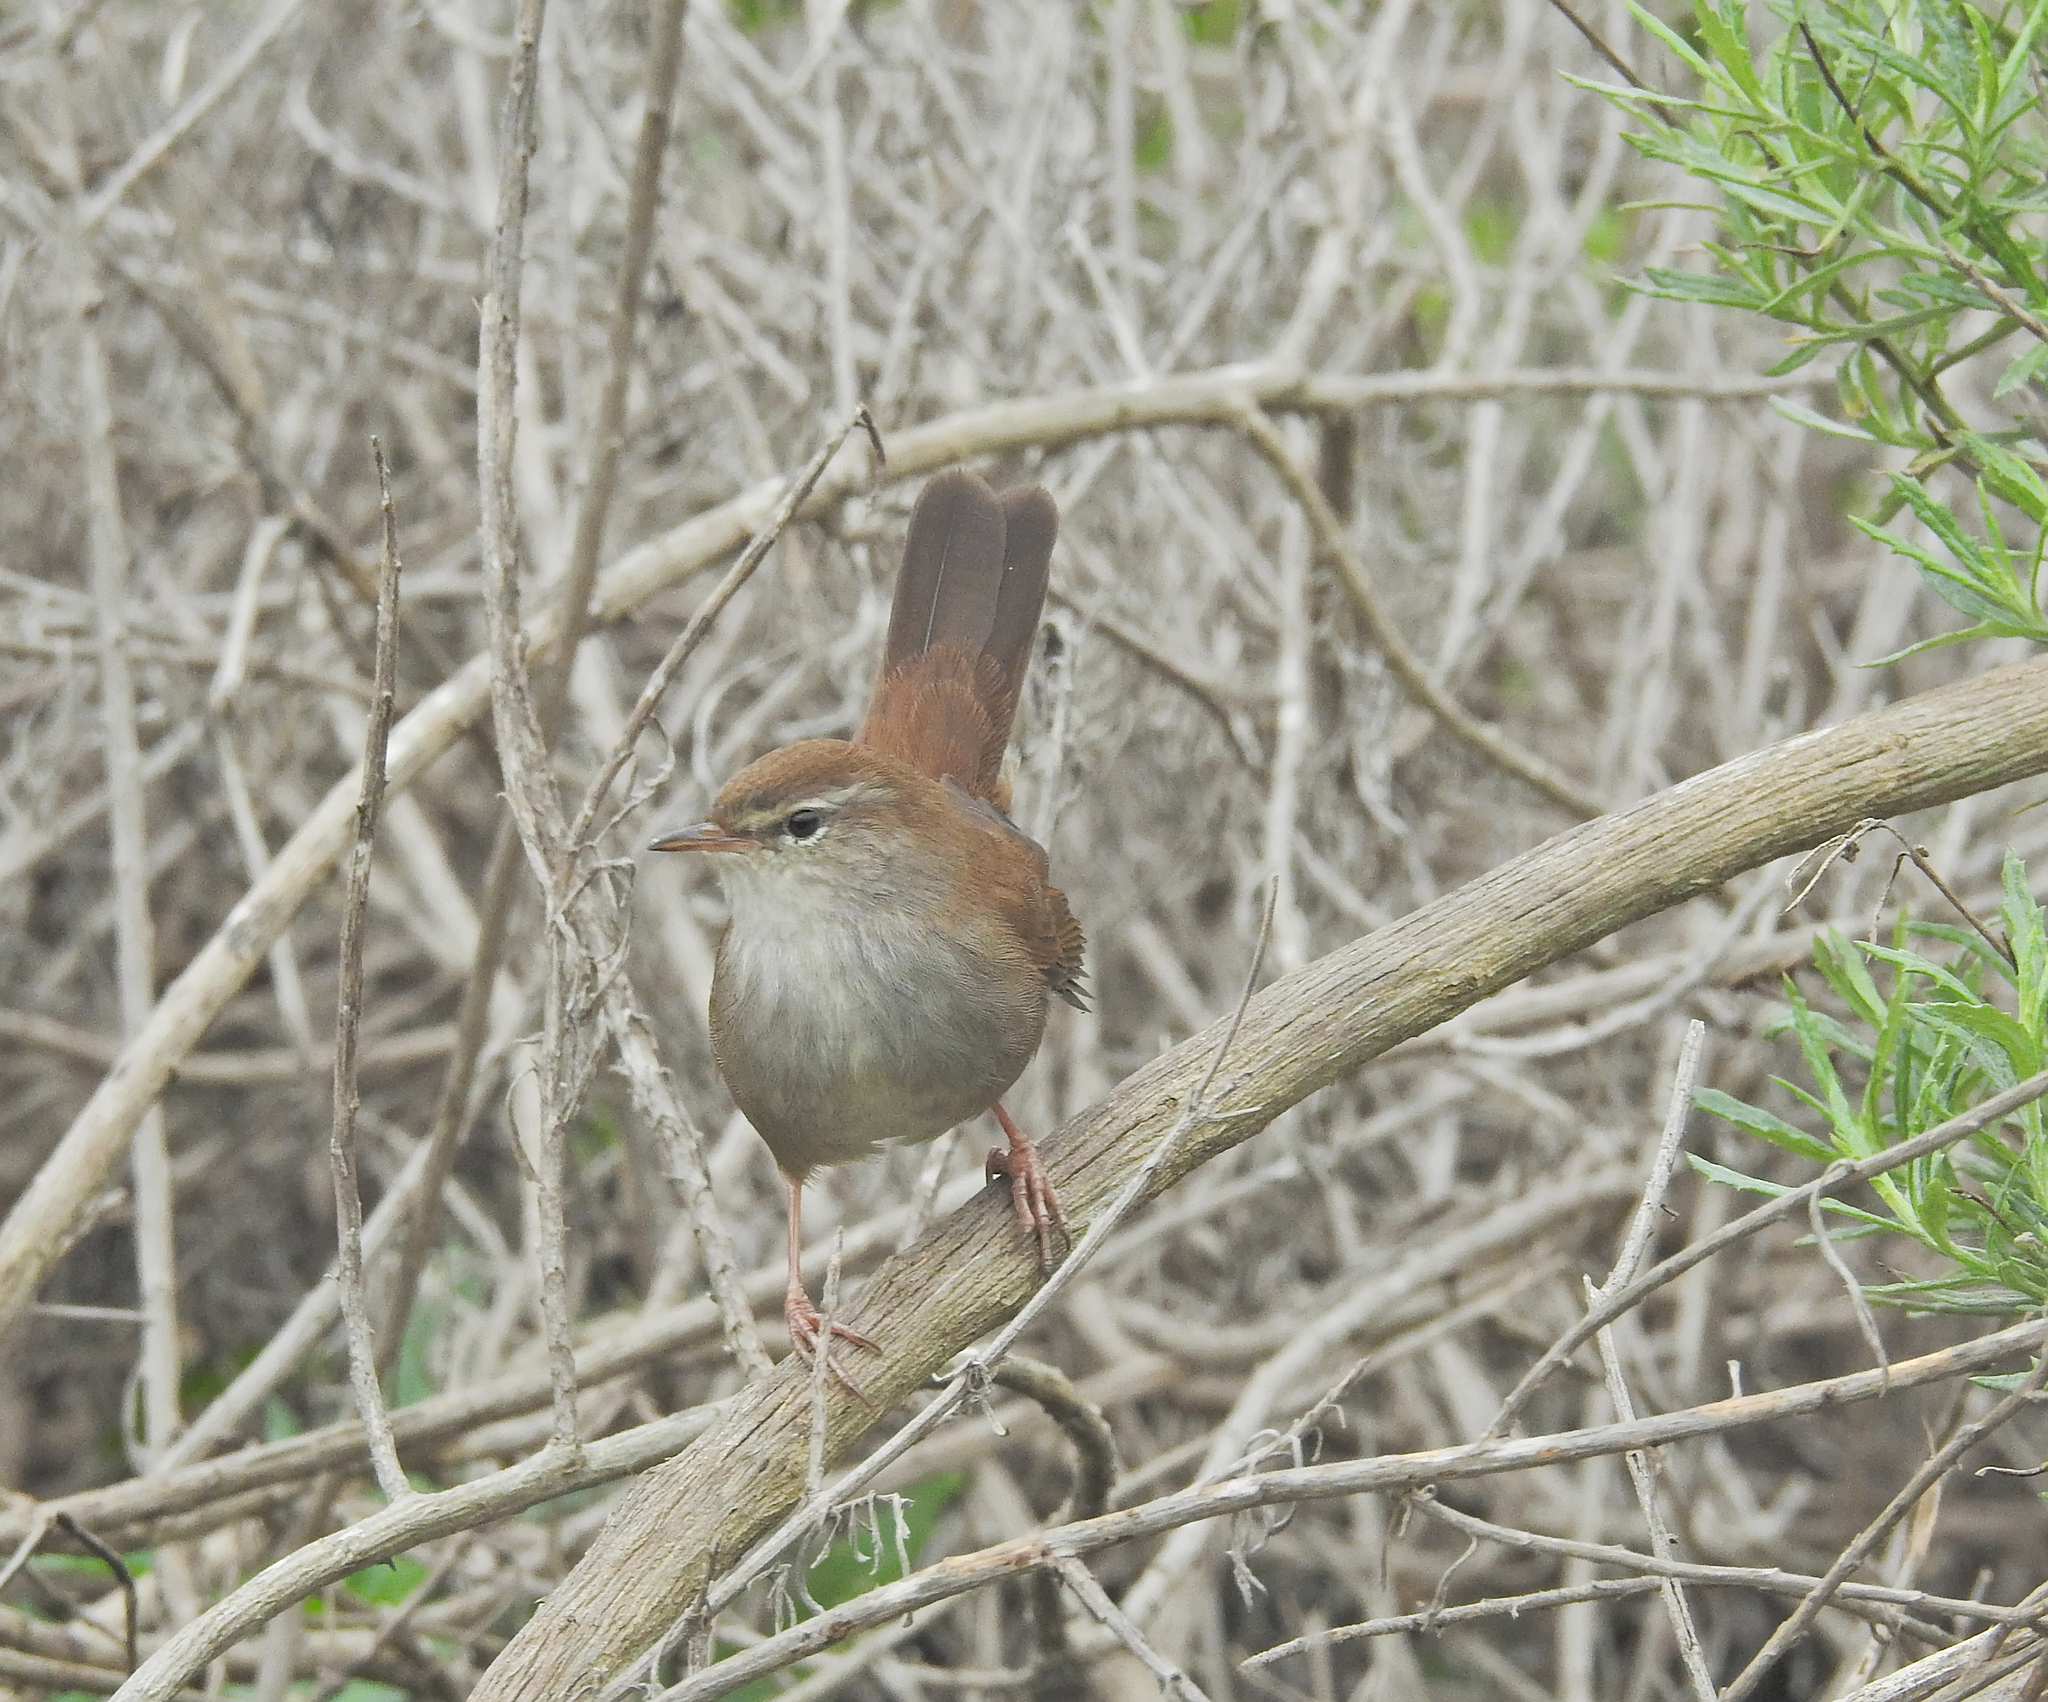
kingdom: Animalia
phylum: Chordata
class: Aves
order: Passeriformes
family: Cettiidae
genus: Cettia
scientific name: Cettia cetti
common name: Cetti's warbler
